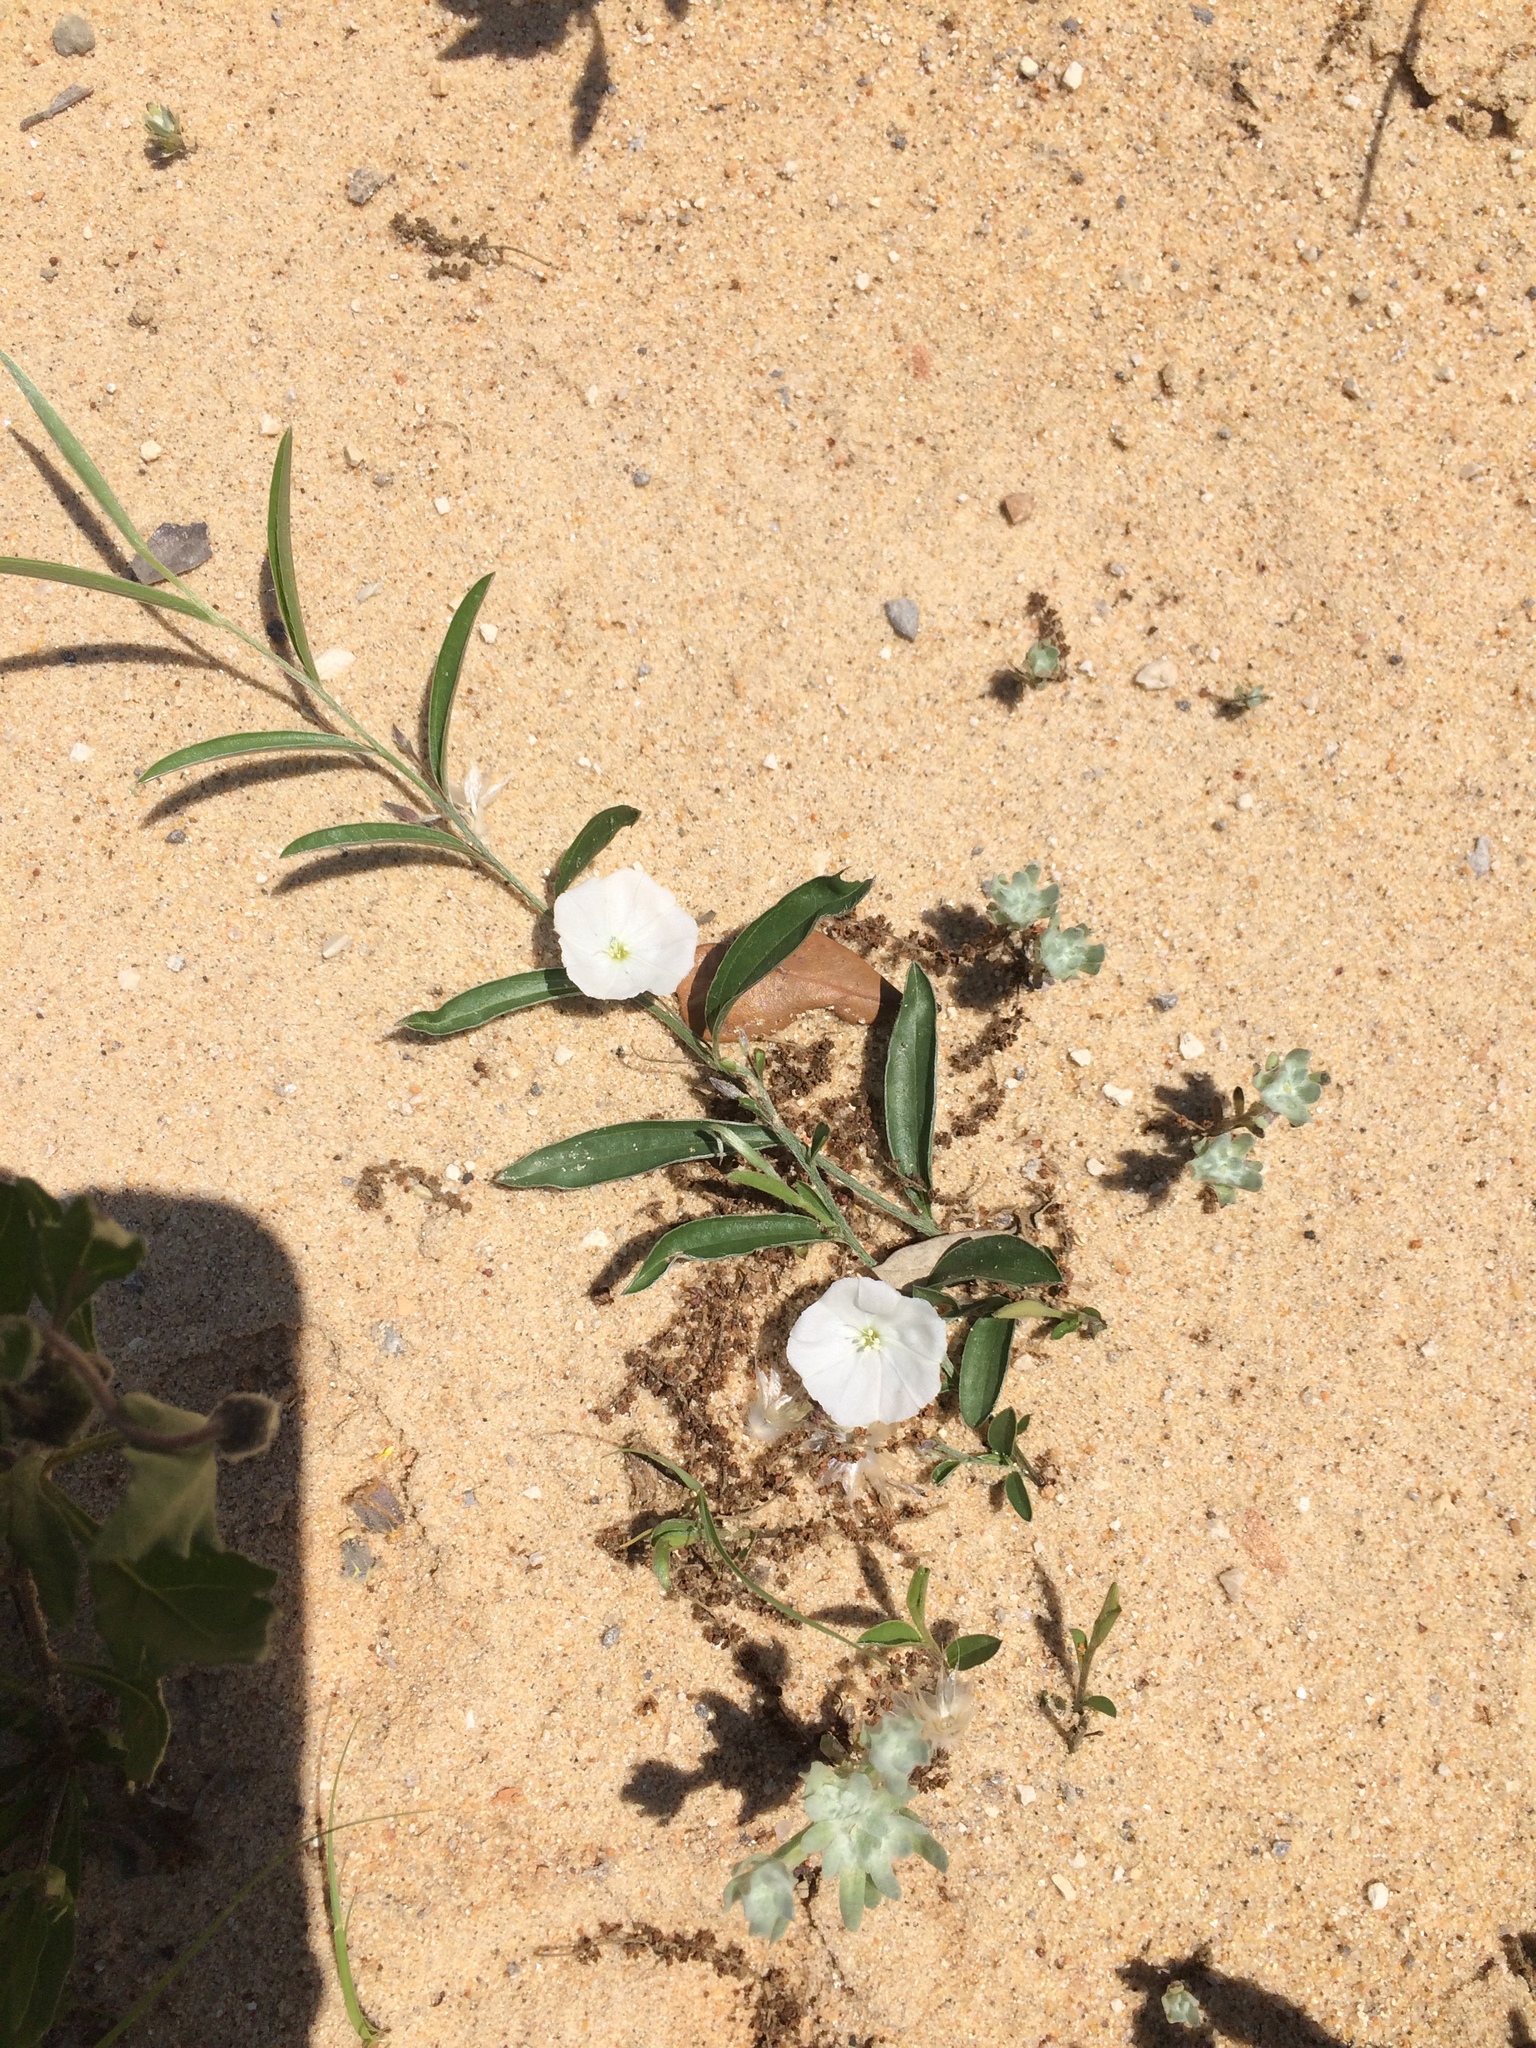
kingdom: Plantae
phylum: Tracheophyta
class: Magnoliopsida
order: Solanales
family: Convolvulaceae
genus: Evolvulus
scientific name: Evolvulus sericeus
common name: Blue dots
